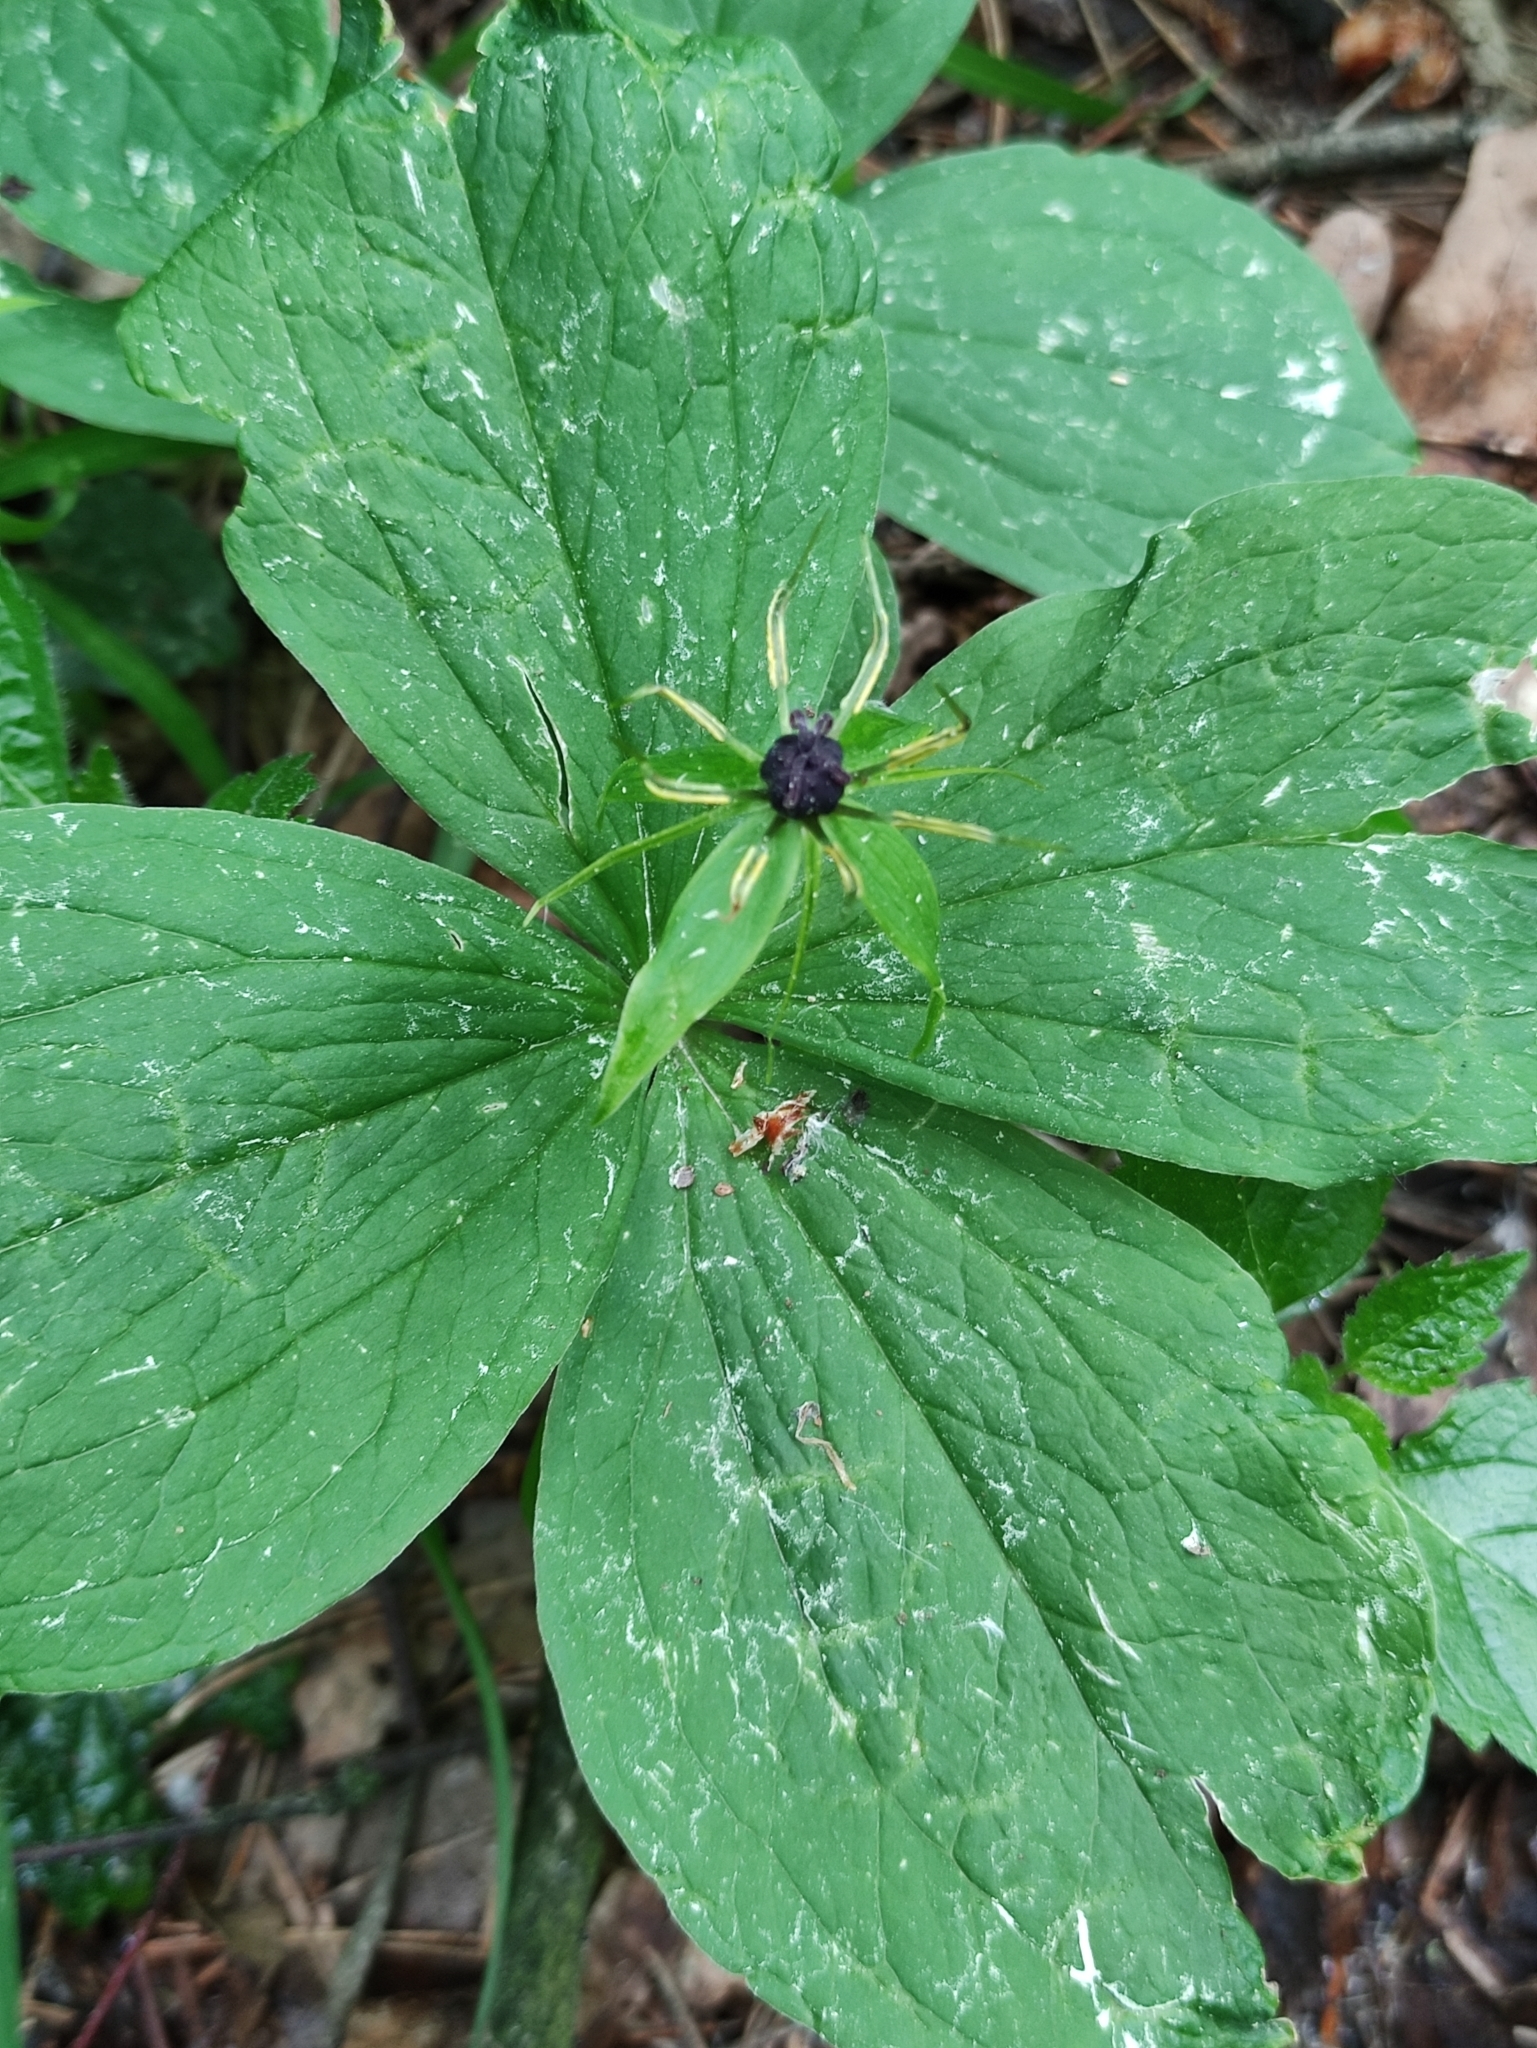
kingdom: Plantae
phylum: Tracheophyta
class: Liliopsida
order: Liliales
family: Melanthiaceae
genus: Paris
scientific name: Paris quadrifolia
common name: Herb-paris
